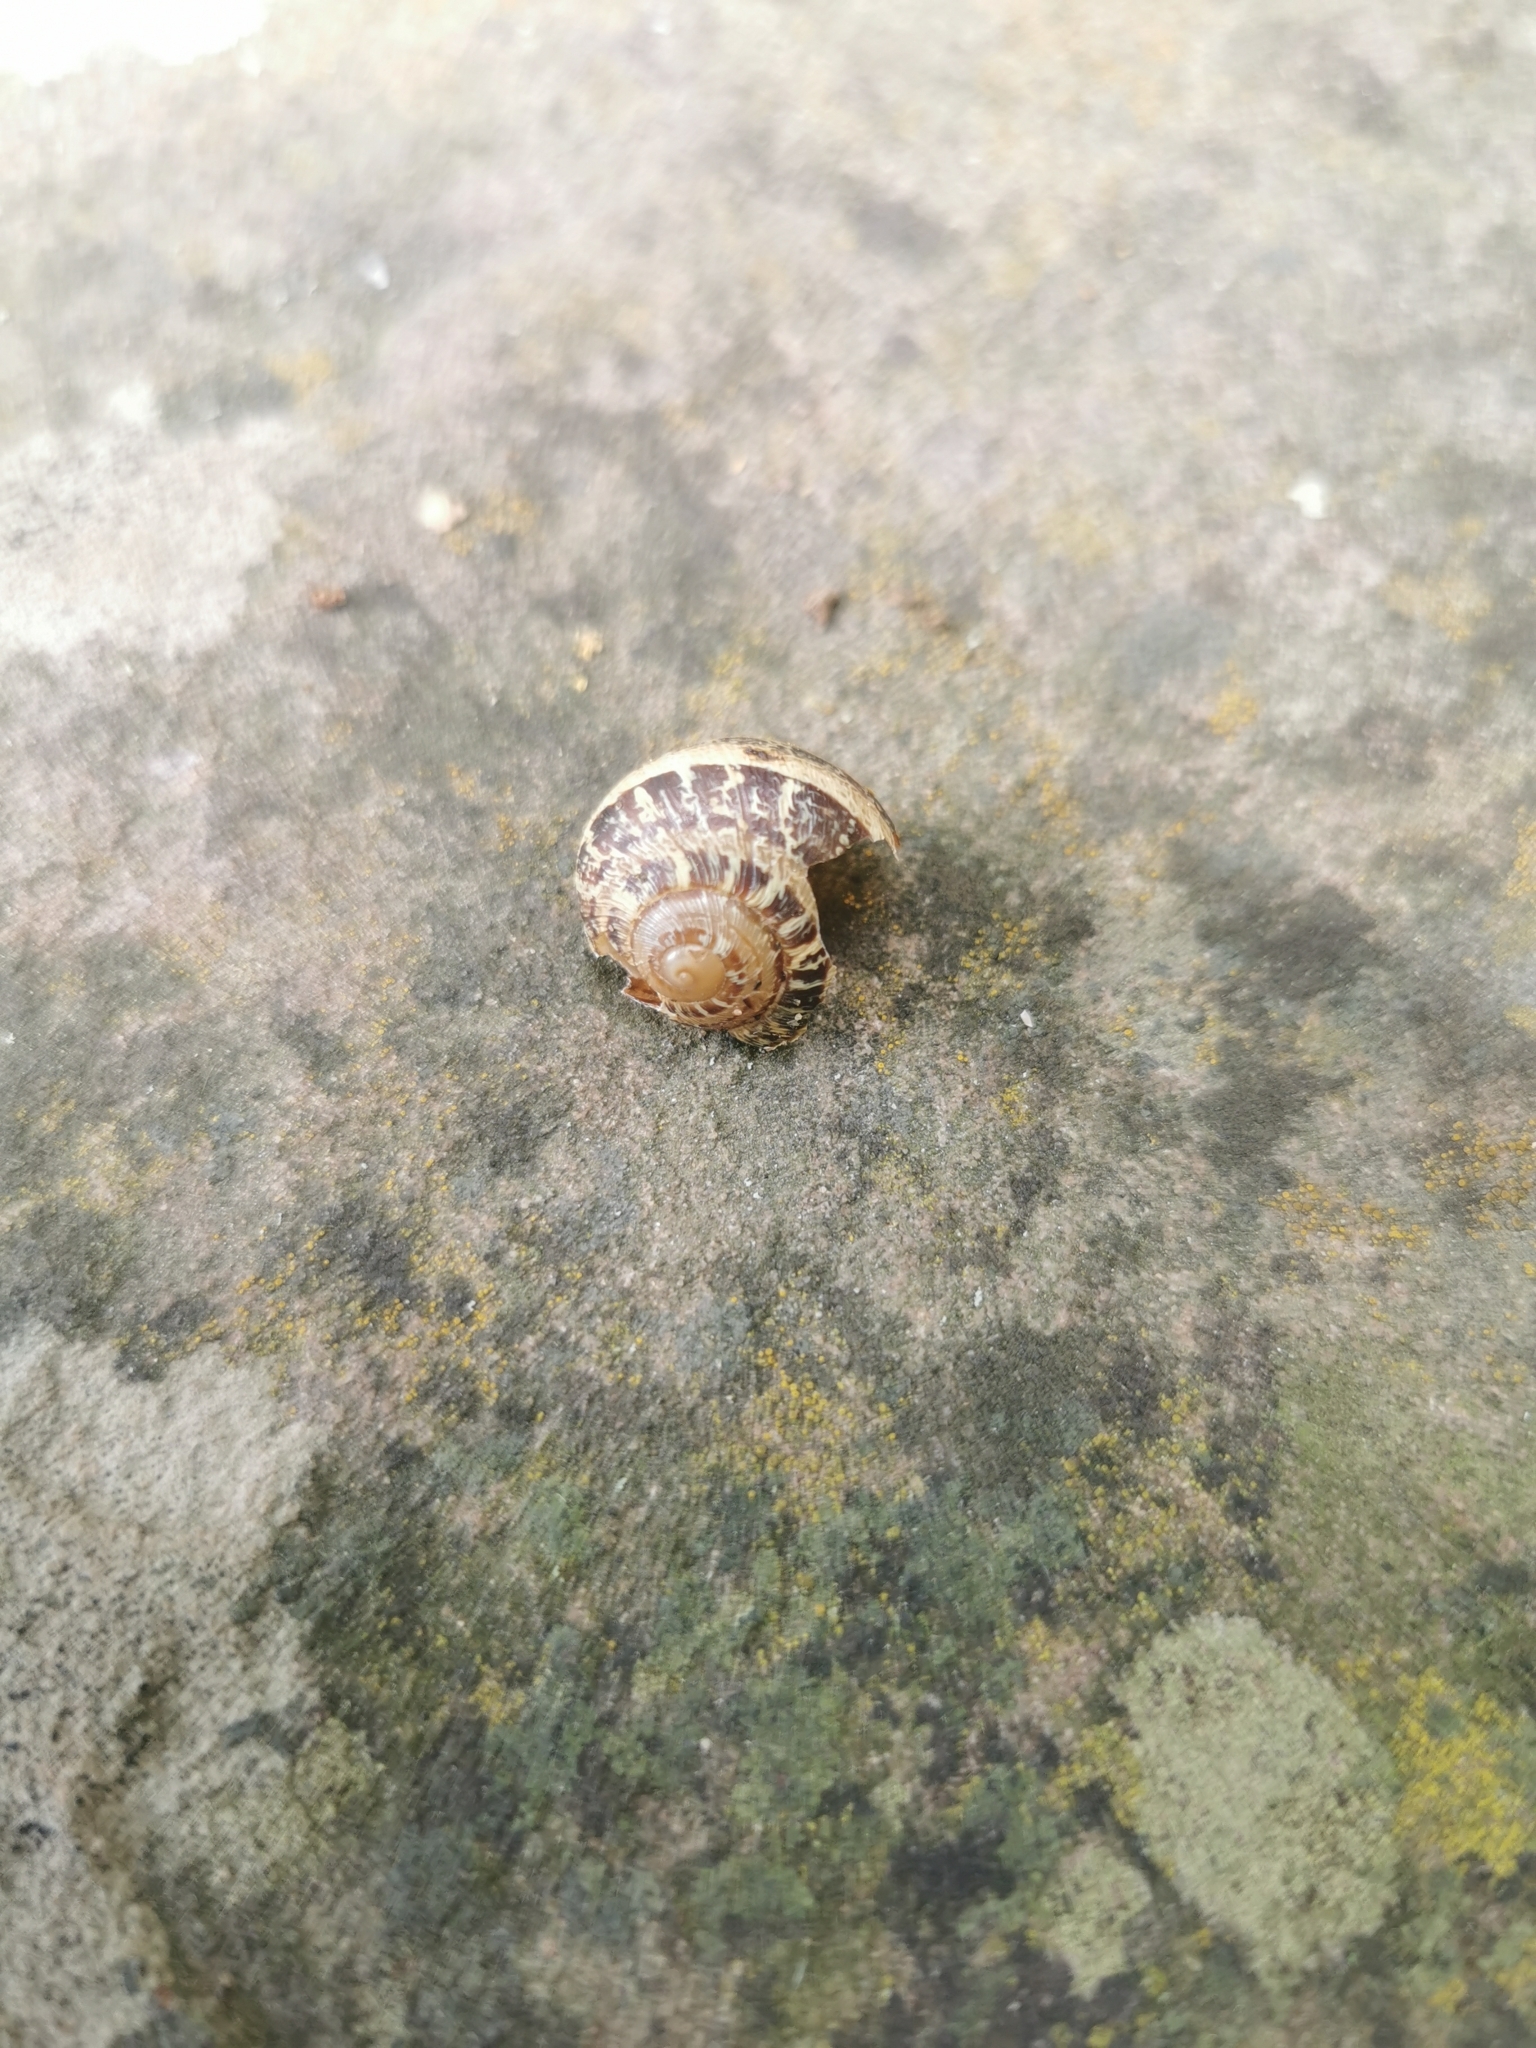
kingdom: Animalia
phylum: Mollusca
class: Gastropoda
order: Stylommatophora
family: Helicidae
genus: Cornu
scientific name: Cornu aspersum
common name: Brown garden snail
